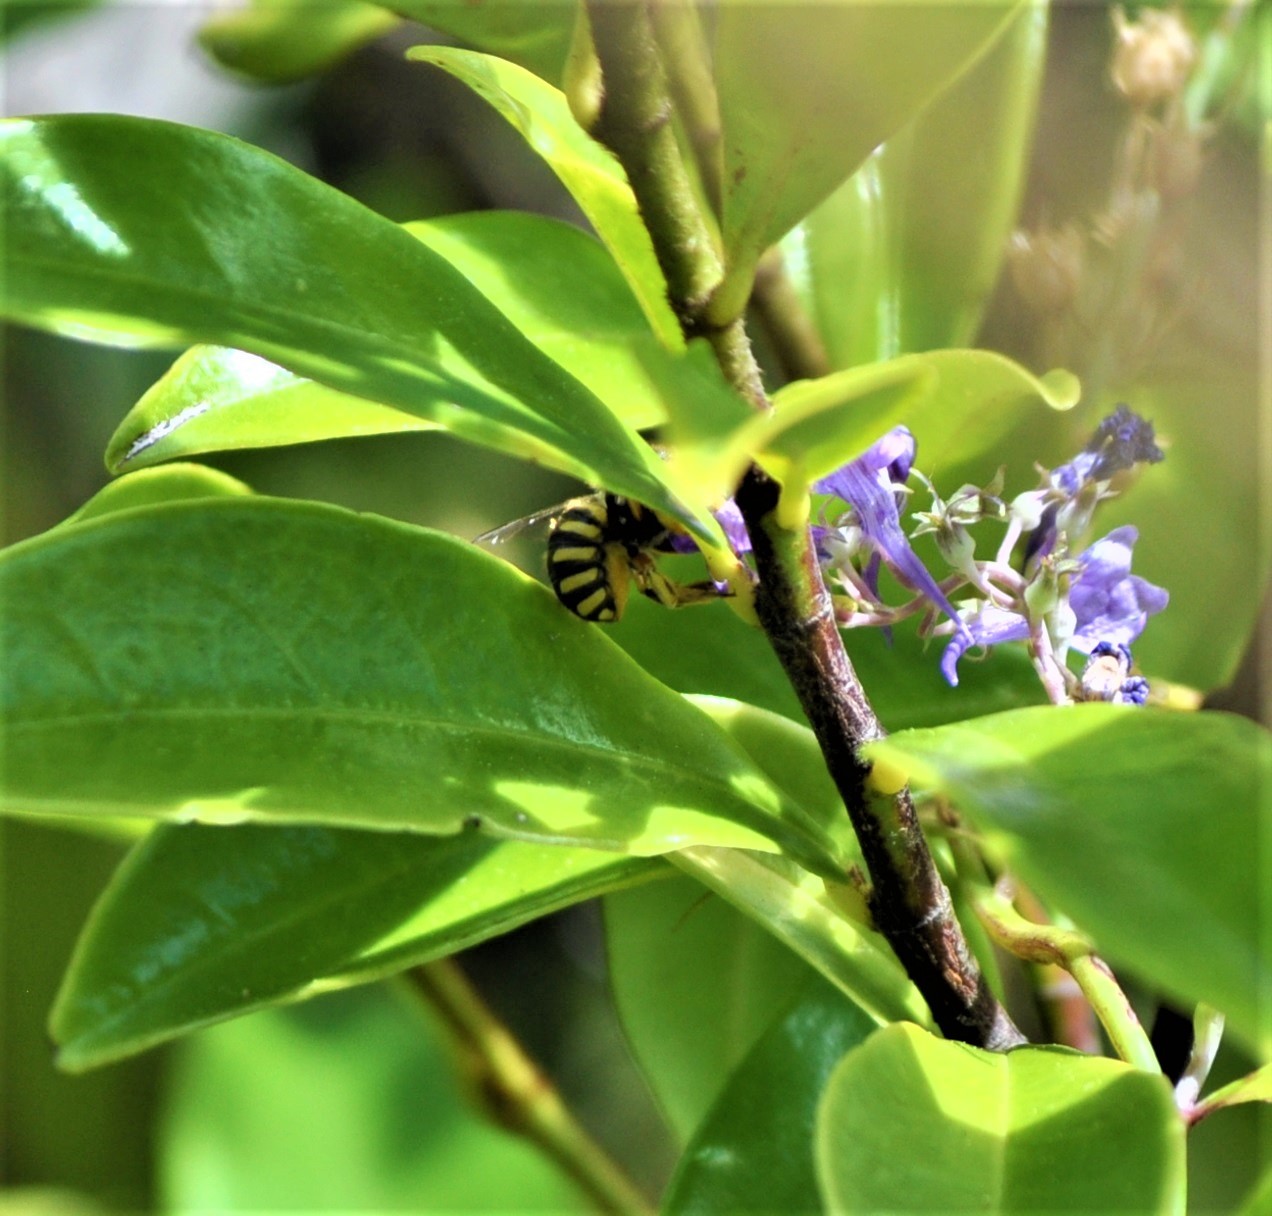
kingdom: Animalia
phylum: Arthropoda
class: Insecta
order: Hymenoptera
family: Megachilidae
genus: Anthidium
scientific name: Anthidium manicatum
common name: Wool carder bee
